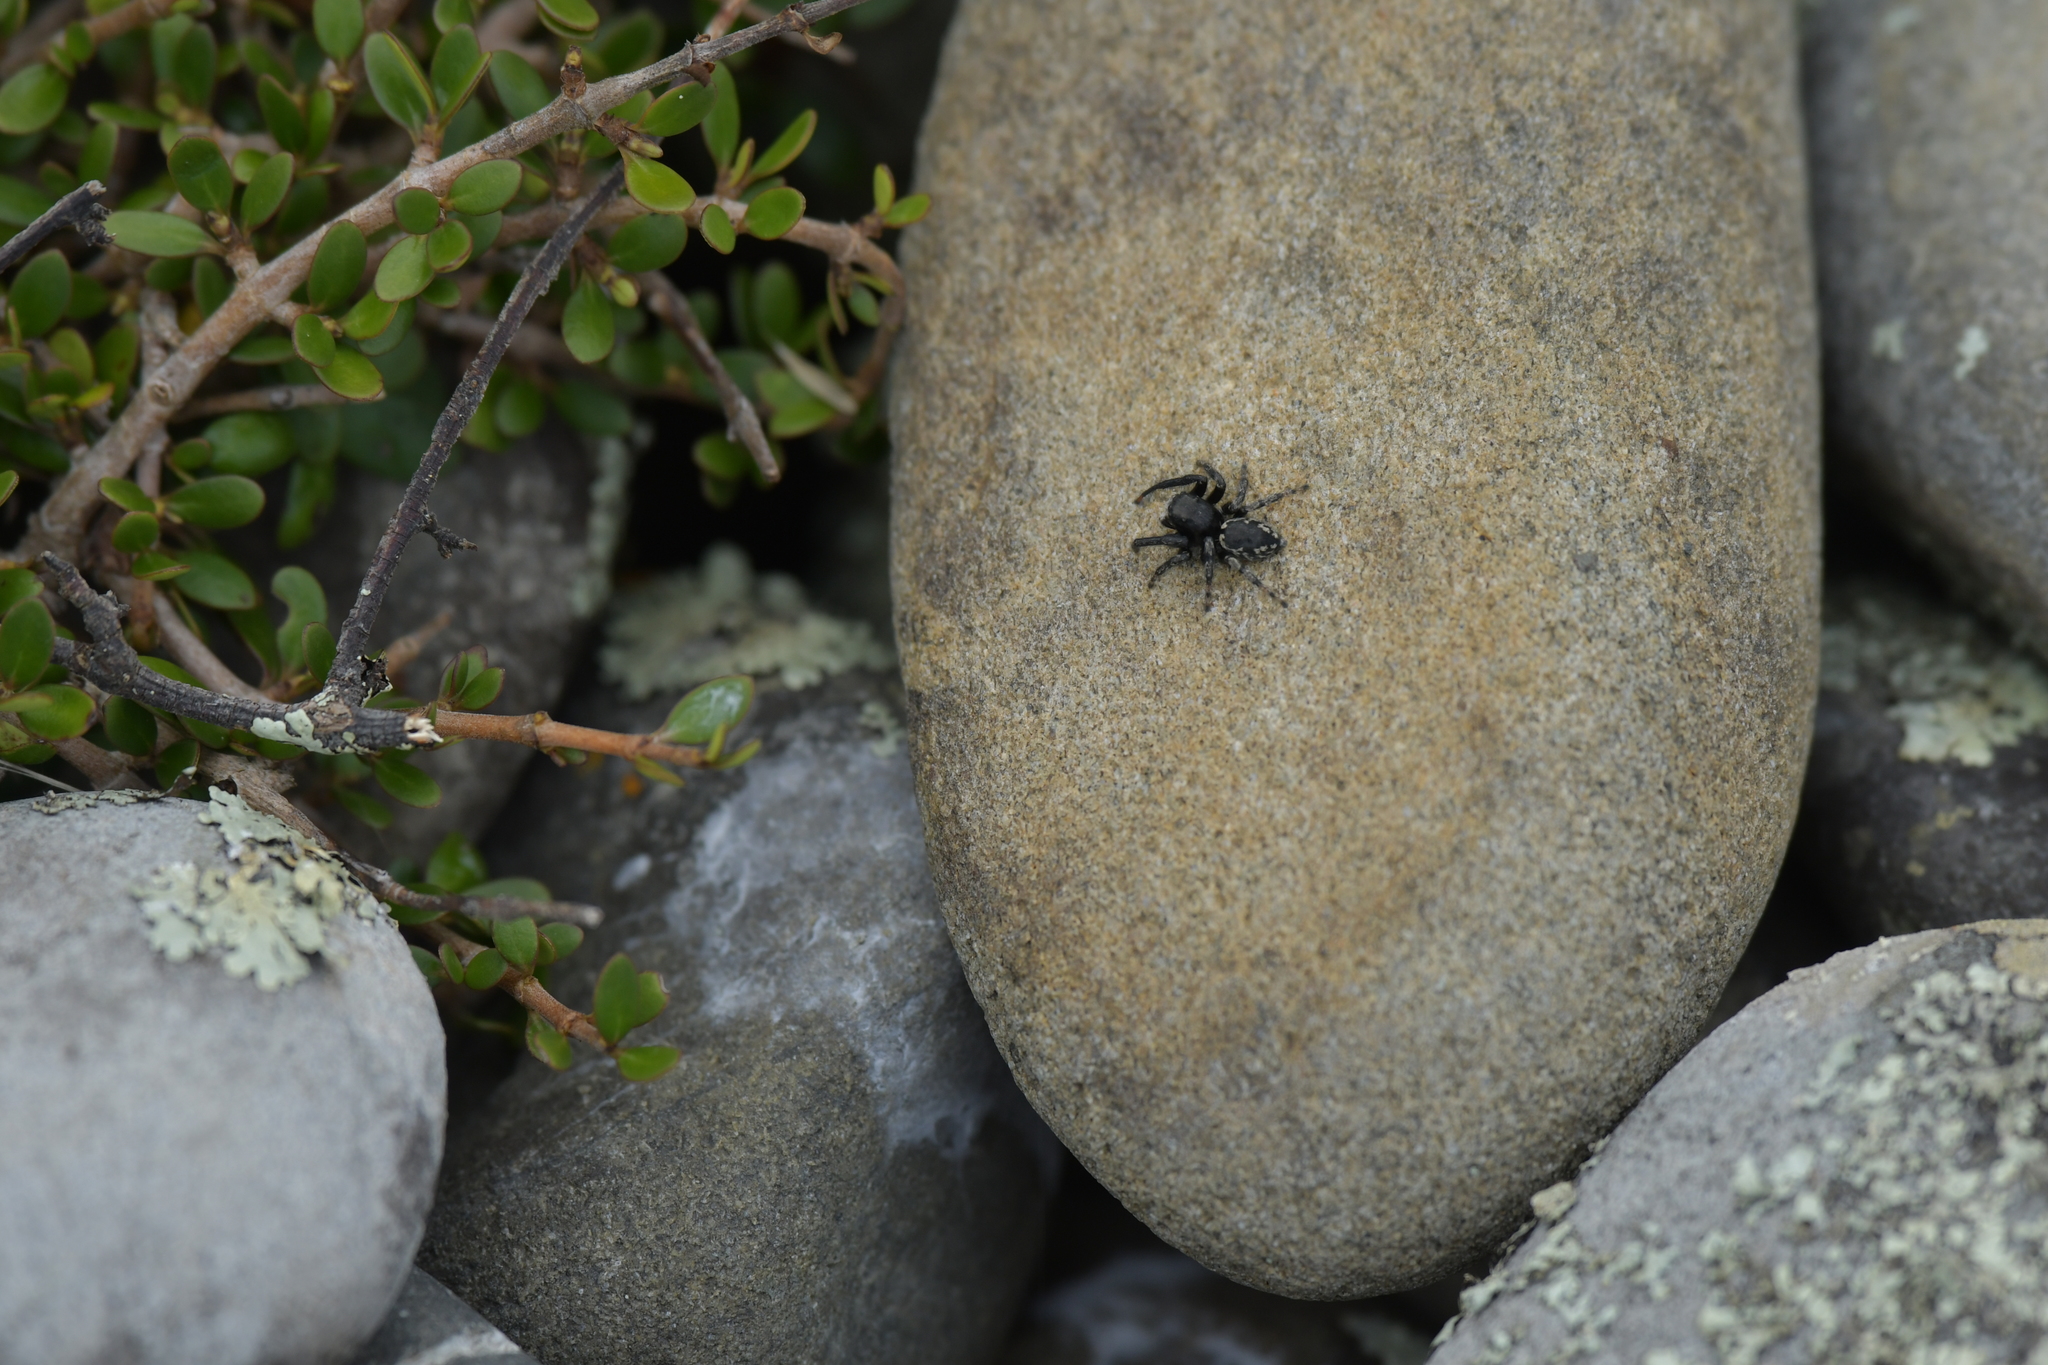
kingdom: Animalia
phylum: Arthropoda
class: Arachnida
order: Araneae
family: Salticidae
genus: Marpissa
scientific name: Marpissa marina
